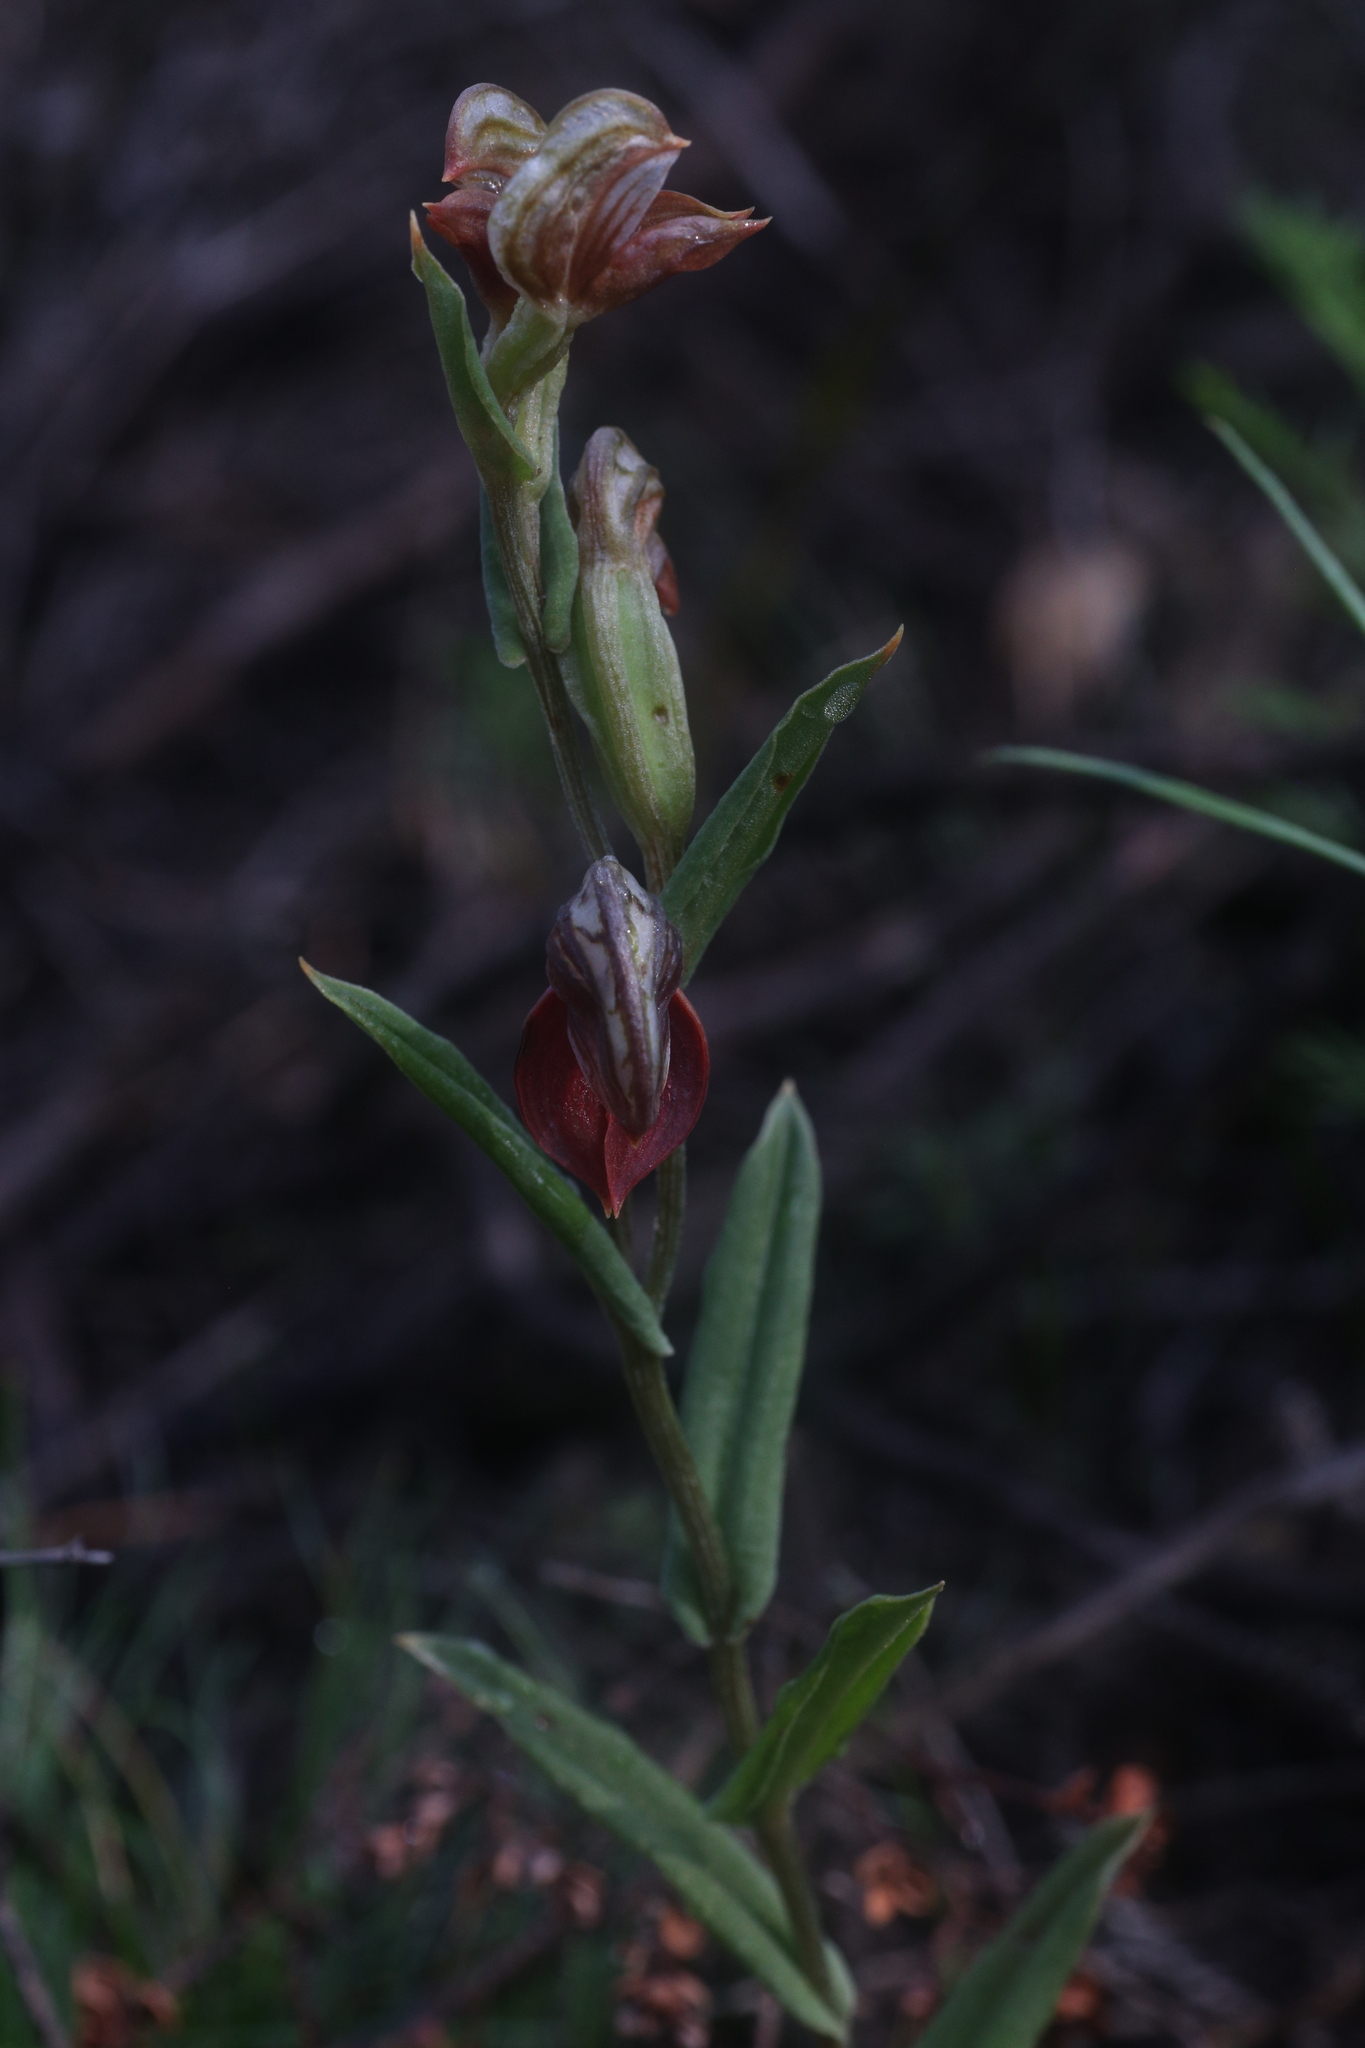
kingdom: Plantae
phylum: Tracheophyta
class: Liliopsida
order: Asparagales
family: Orchidaceae
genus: Pterostylis
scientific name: Pterostylis sanguinea
